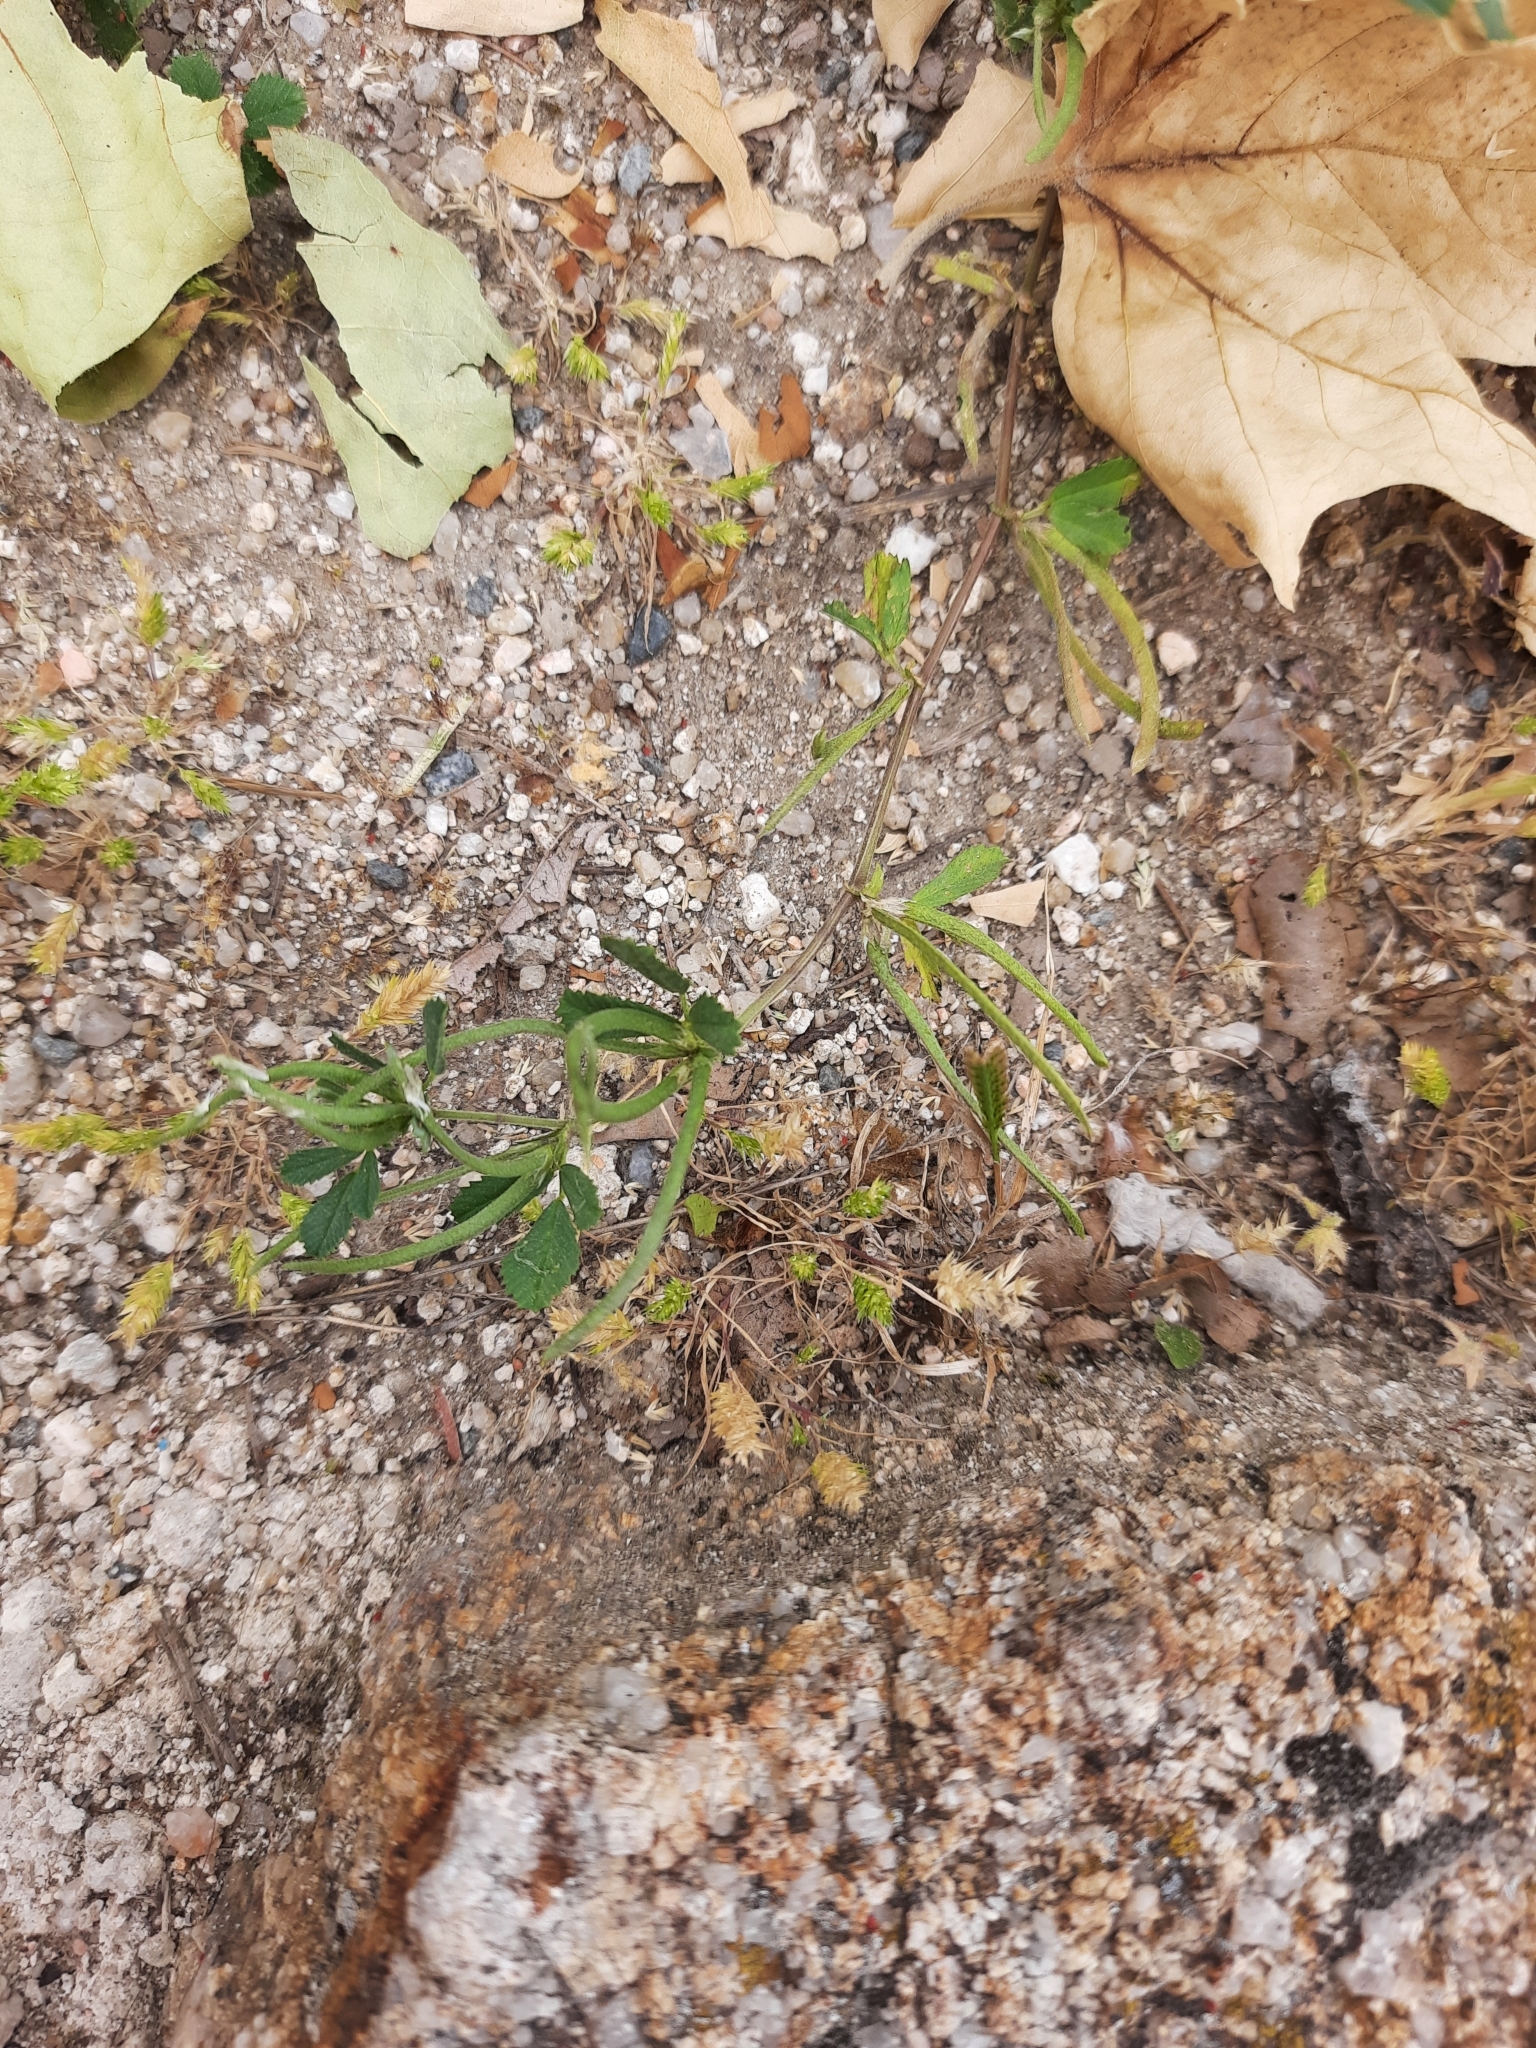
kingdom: Plantae
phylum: Tracheophyta
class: Magnoliopsida
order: Fabales
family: Fabaceae
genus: Medicago
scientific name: Medicago polyceratia
